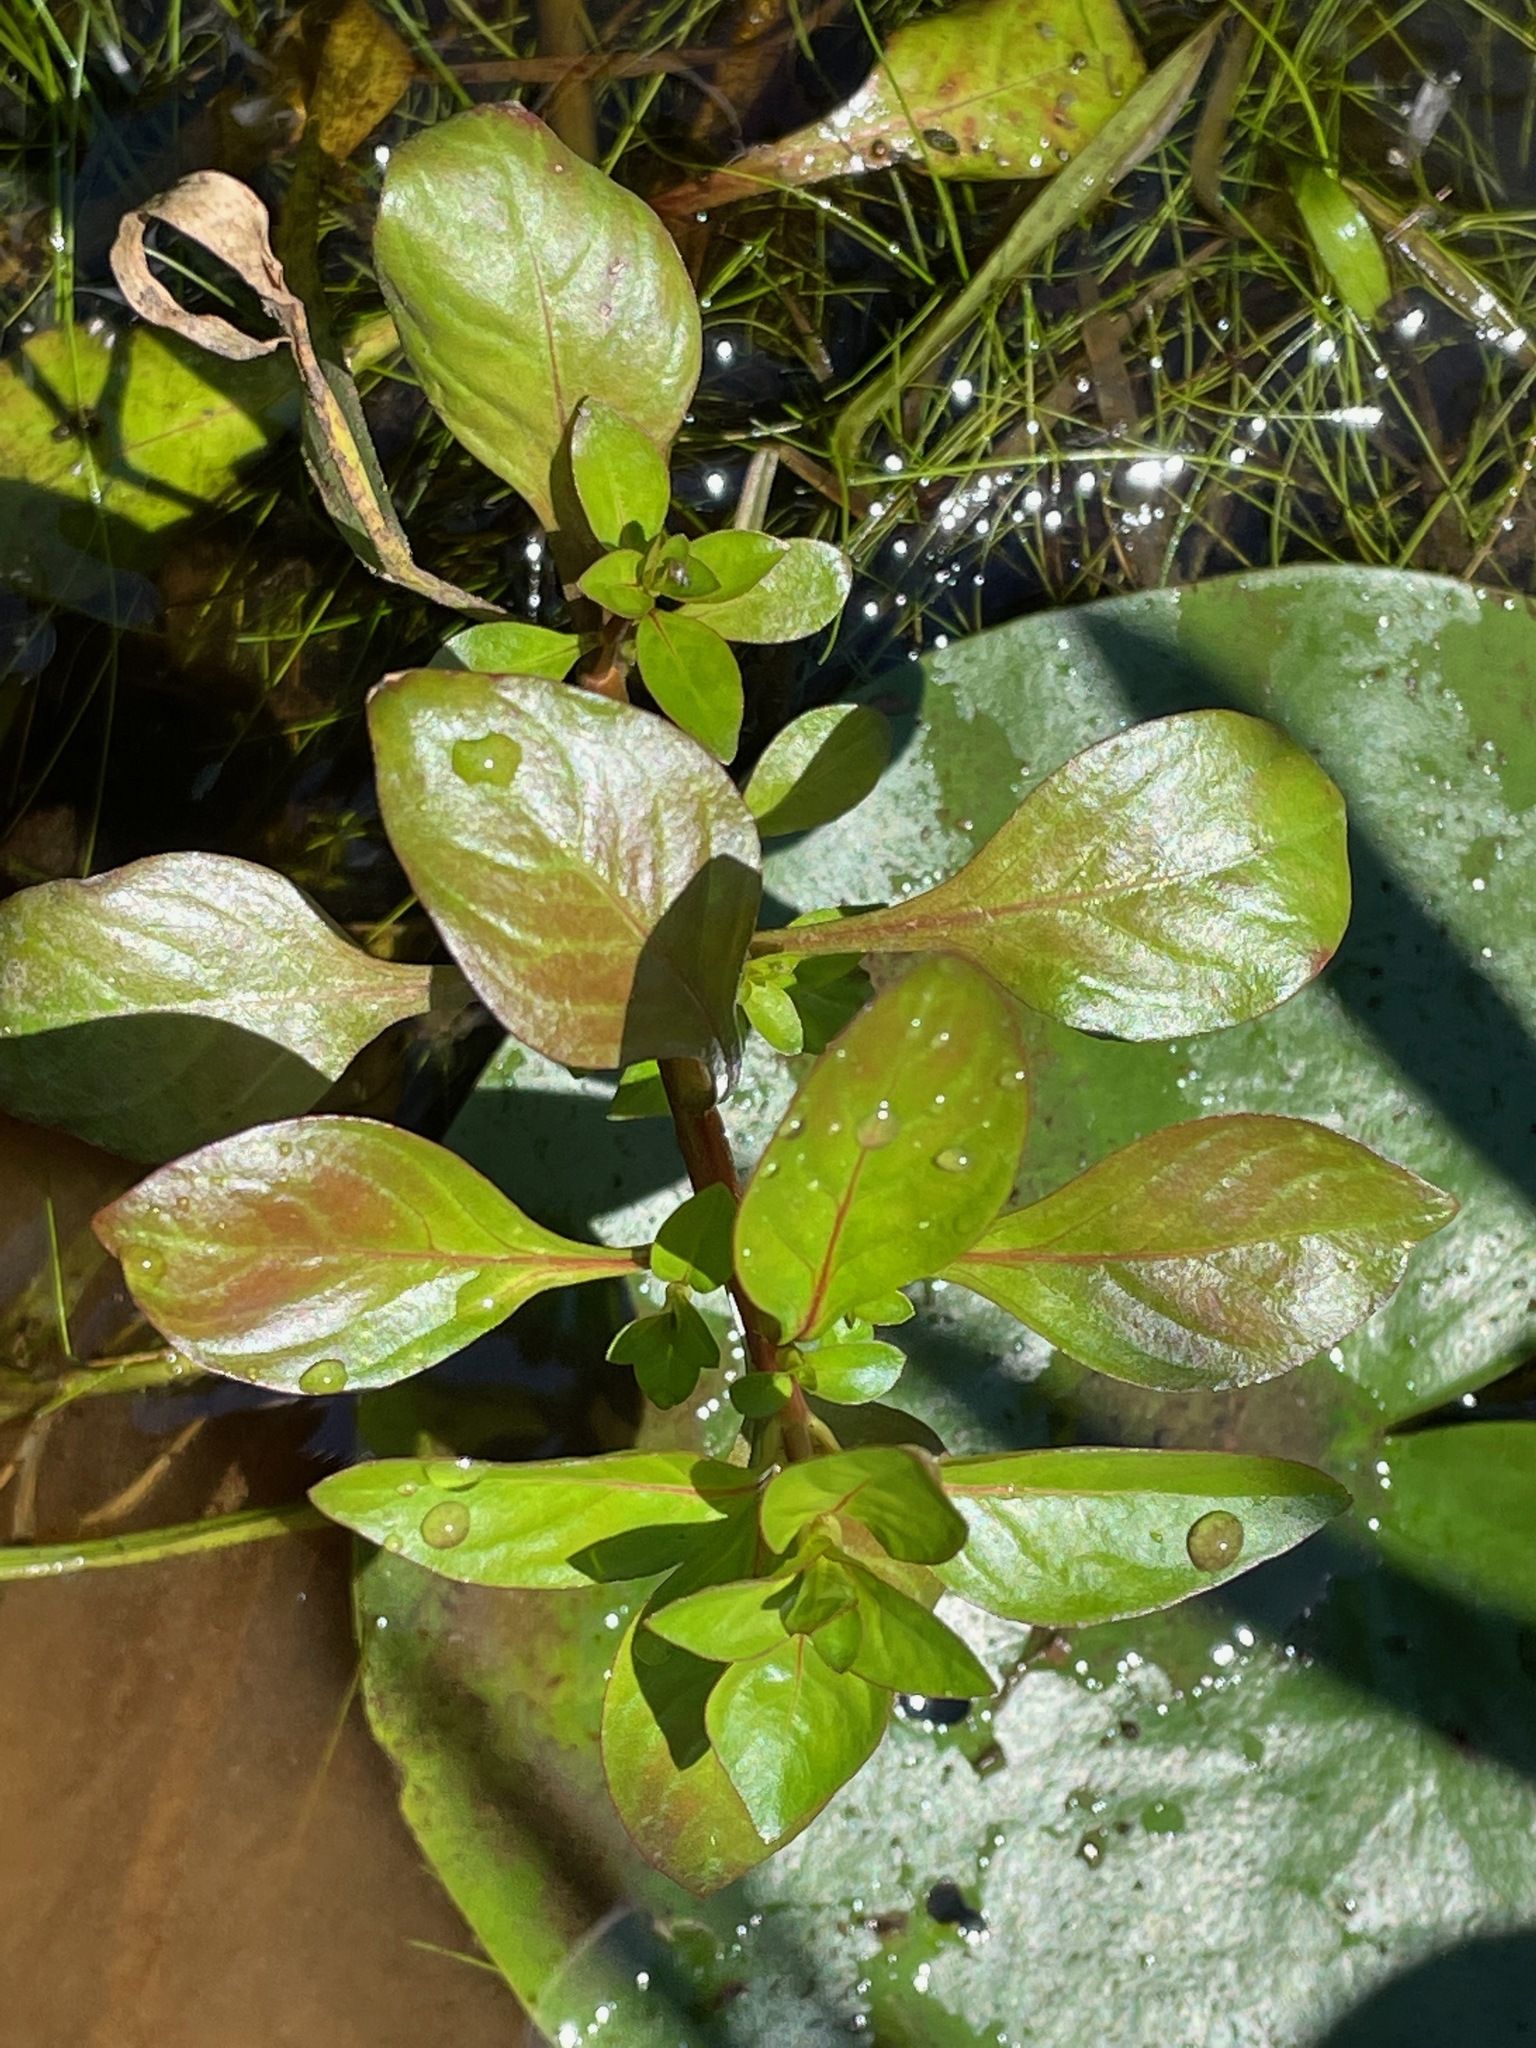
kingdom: Plantae
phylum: Tracheophyta
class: Magnoliopsida
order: Myrtales
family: Onagraceae
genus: Ludwigia
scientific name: Ludwigia palustris
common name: Hampshire-purslane
